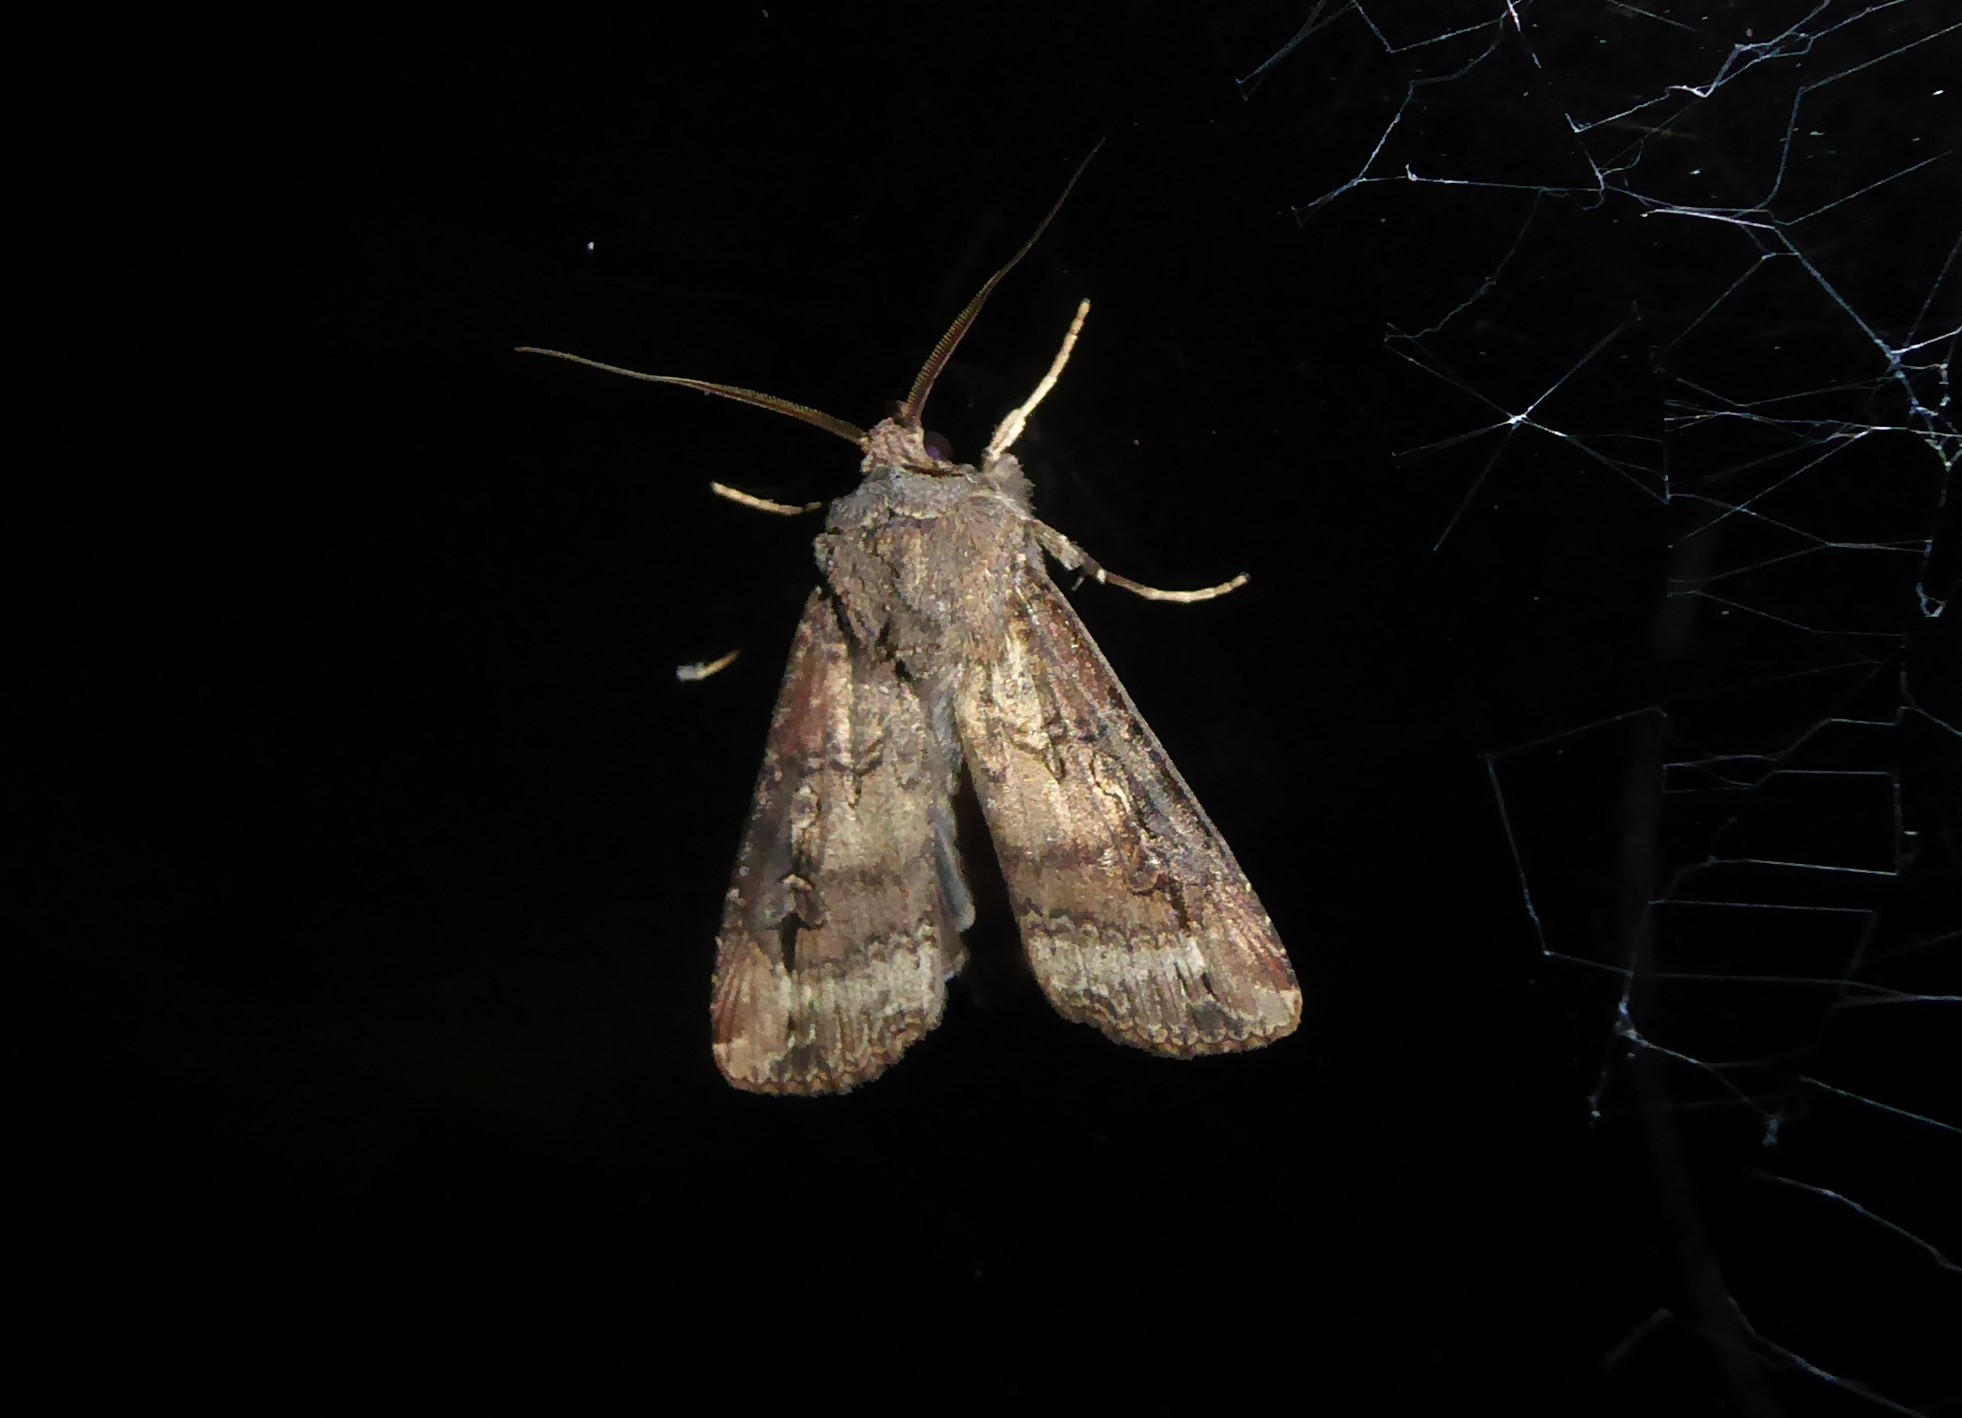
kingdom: Animalia
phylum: Arthropoda
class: Insecta
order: Lepidoptera
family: Noctuidae
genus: Agrotis
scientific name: Agrotis ipsilon
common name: Dark sword-grass
